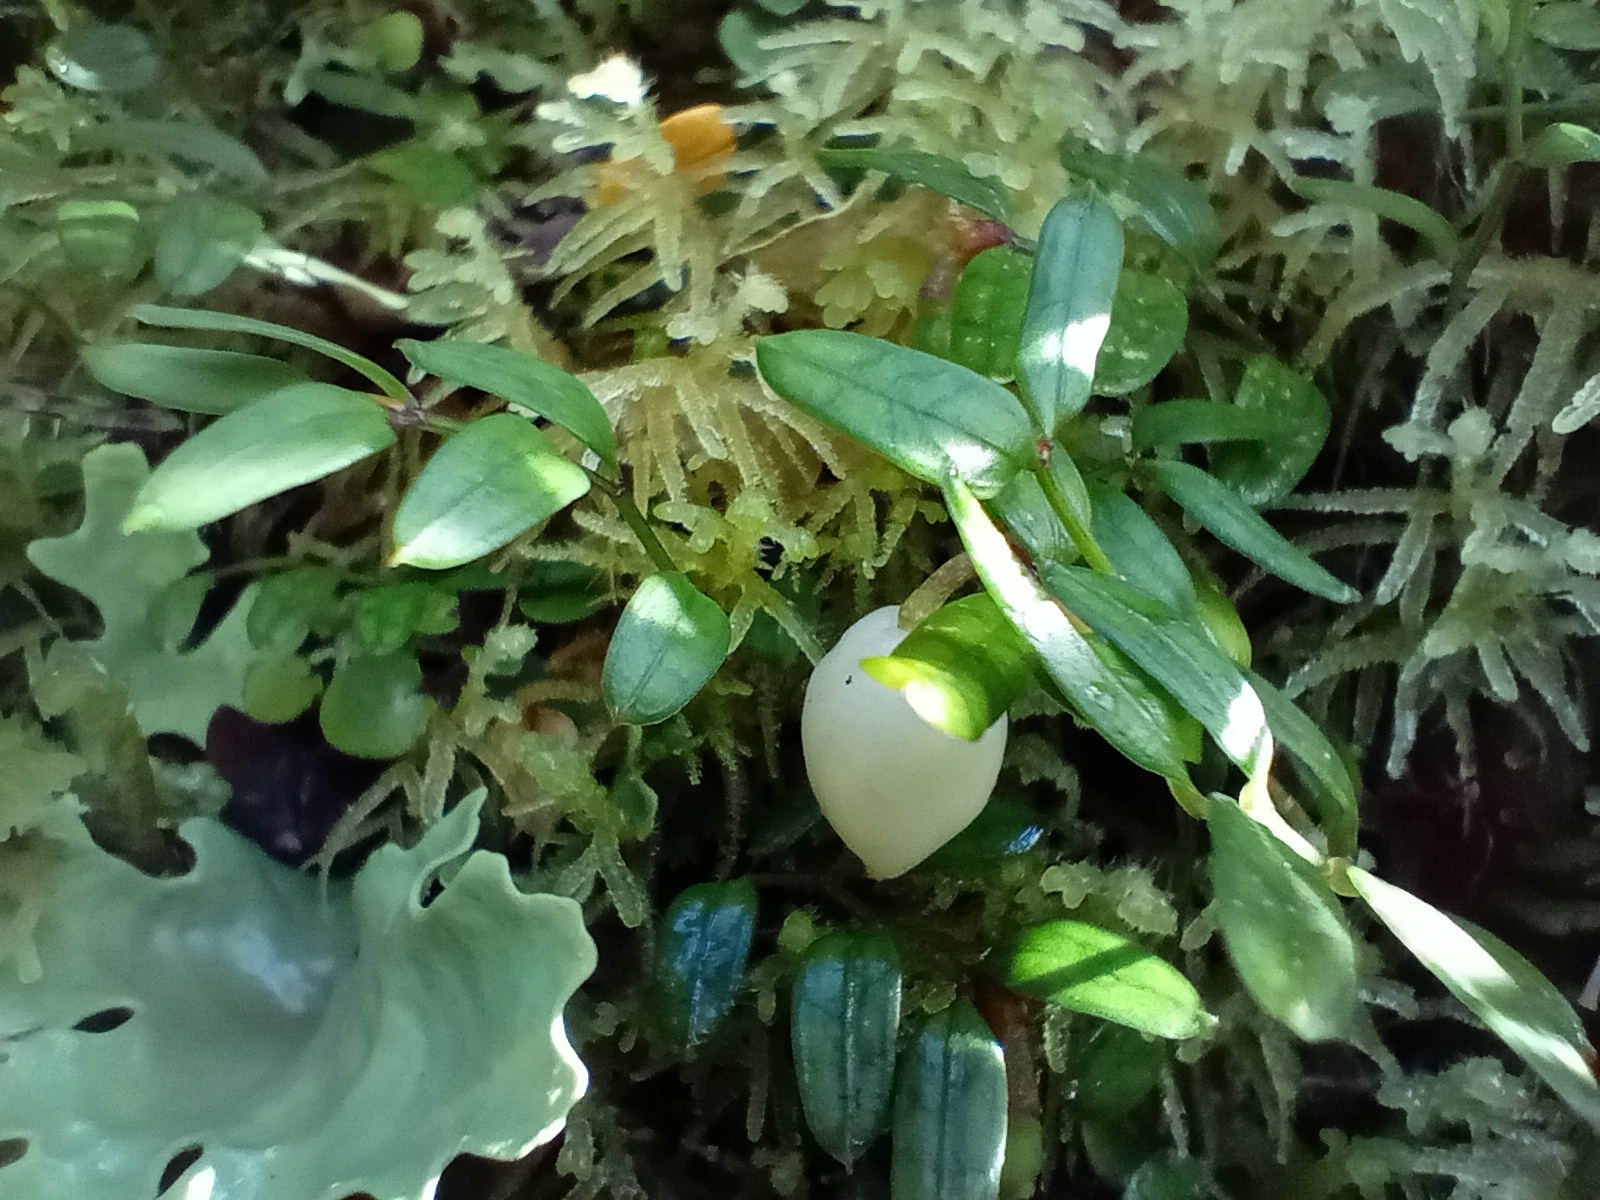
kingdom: Plantae
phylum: Tracheophyta
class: Liliopsida
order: Liliales
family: Alstroemeriaceae
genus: Luzuriaga
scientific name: Luzuriaga parviflora
